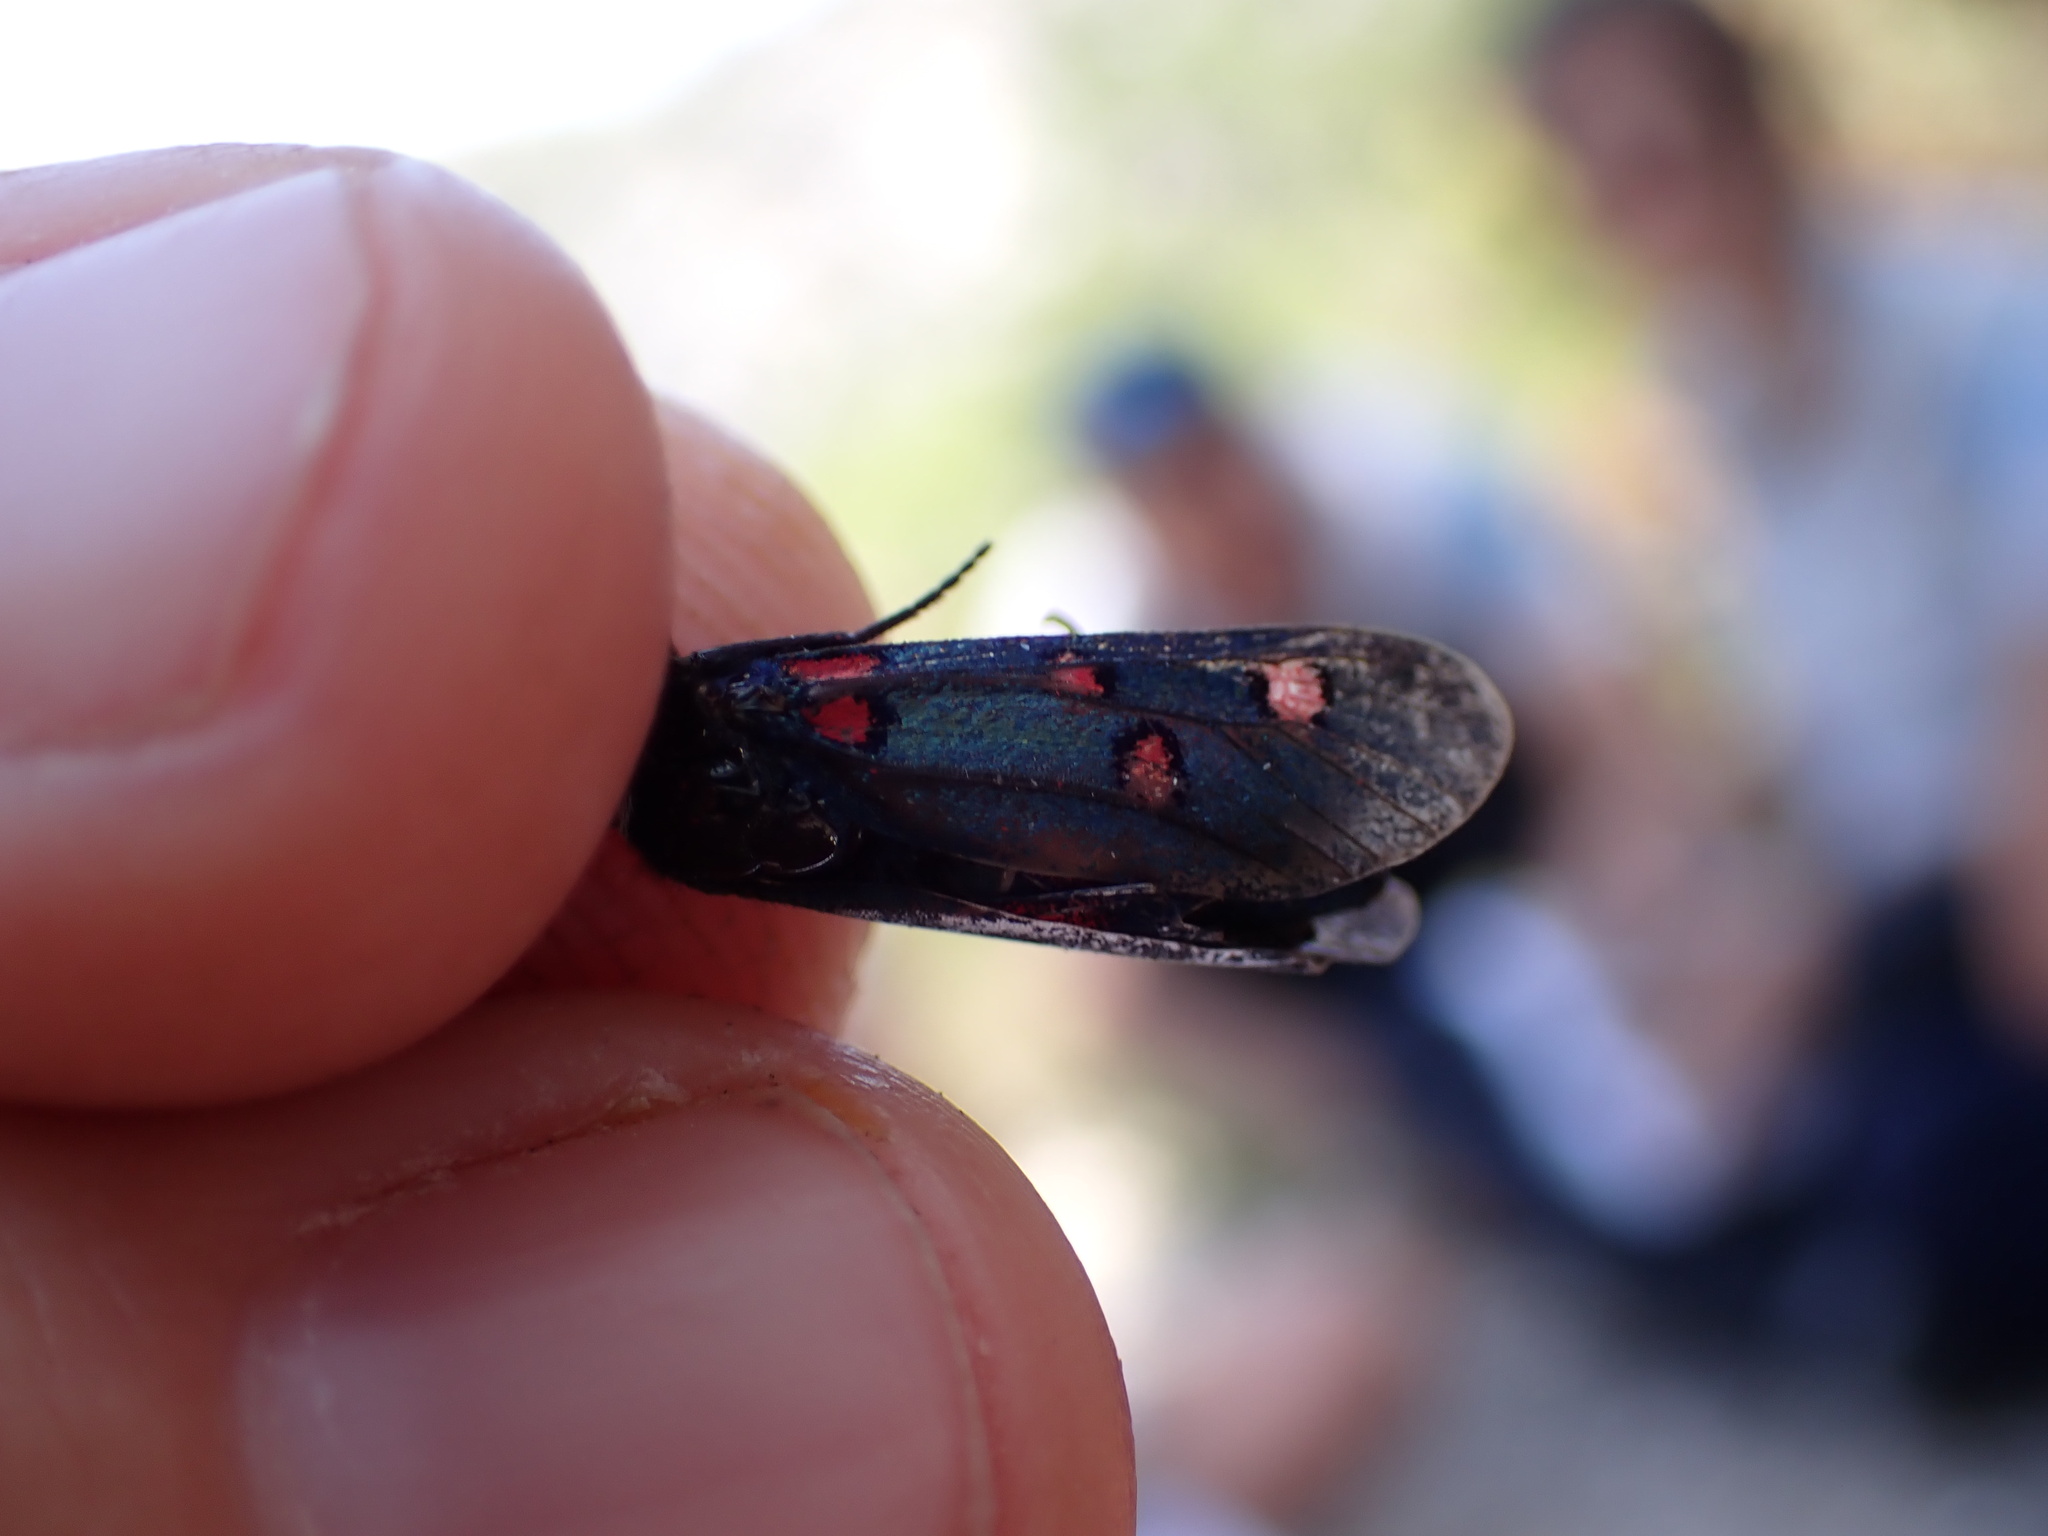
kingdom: Animalia
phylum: Arthropoda
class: Insecta
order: Lepidoptera
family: Zygaenidae
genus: Zygaena
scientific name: Zygaena lavandulae
